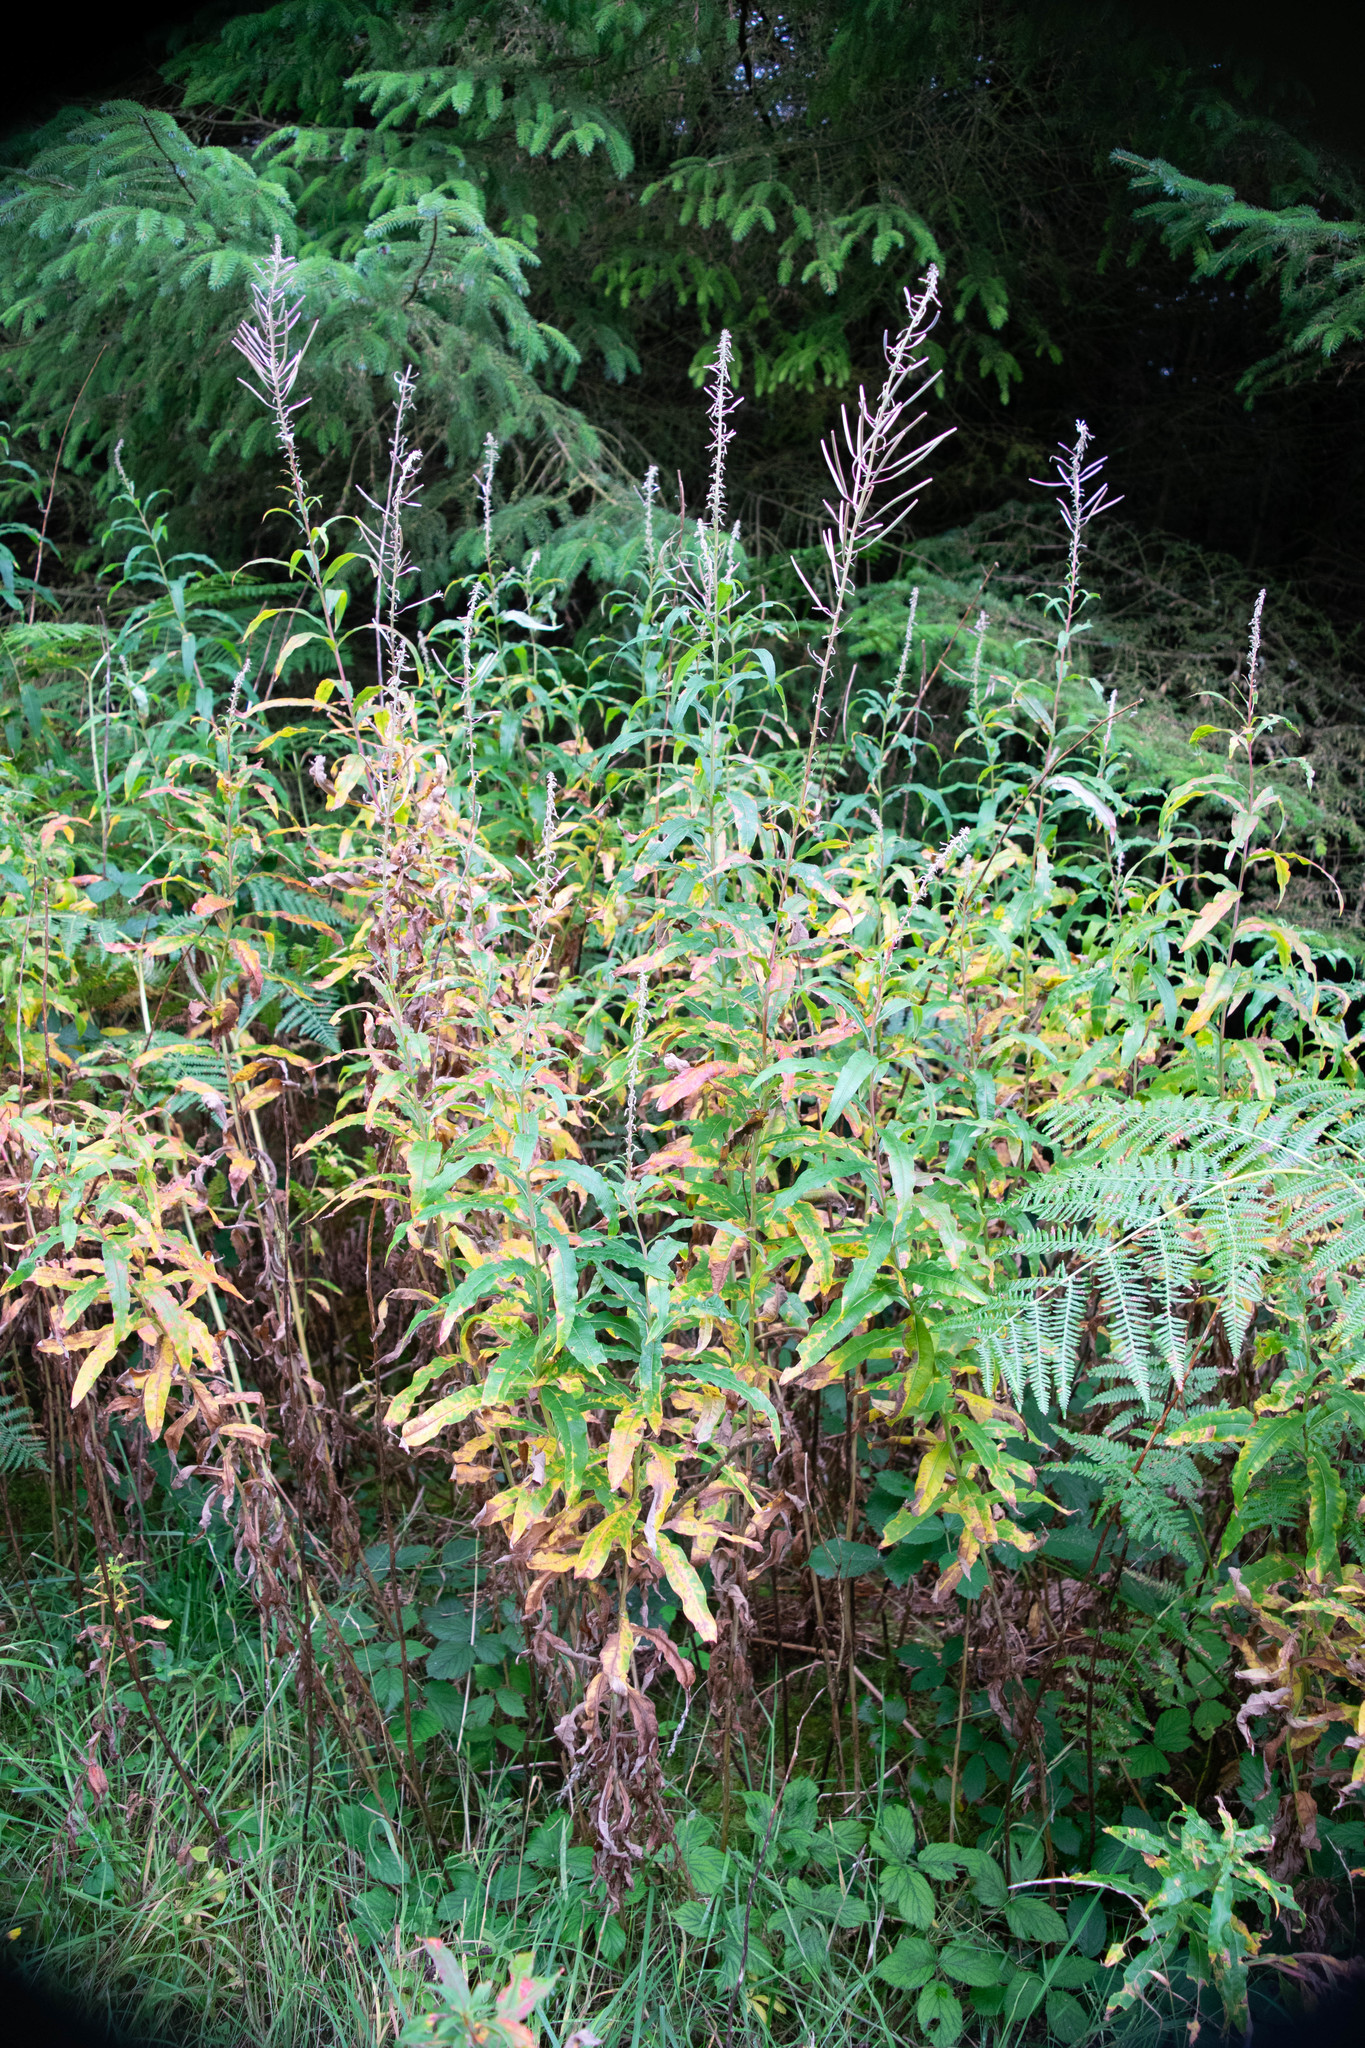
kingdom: Plantae
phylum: Tracheophyta
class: Magnoliopsida
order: Myrtales
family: Onagraceae
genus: Chamaenerion
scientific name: Chamaenerion angustifolium
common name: Fireweed
